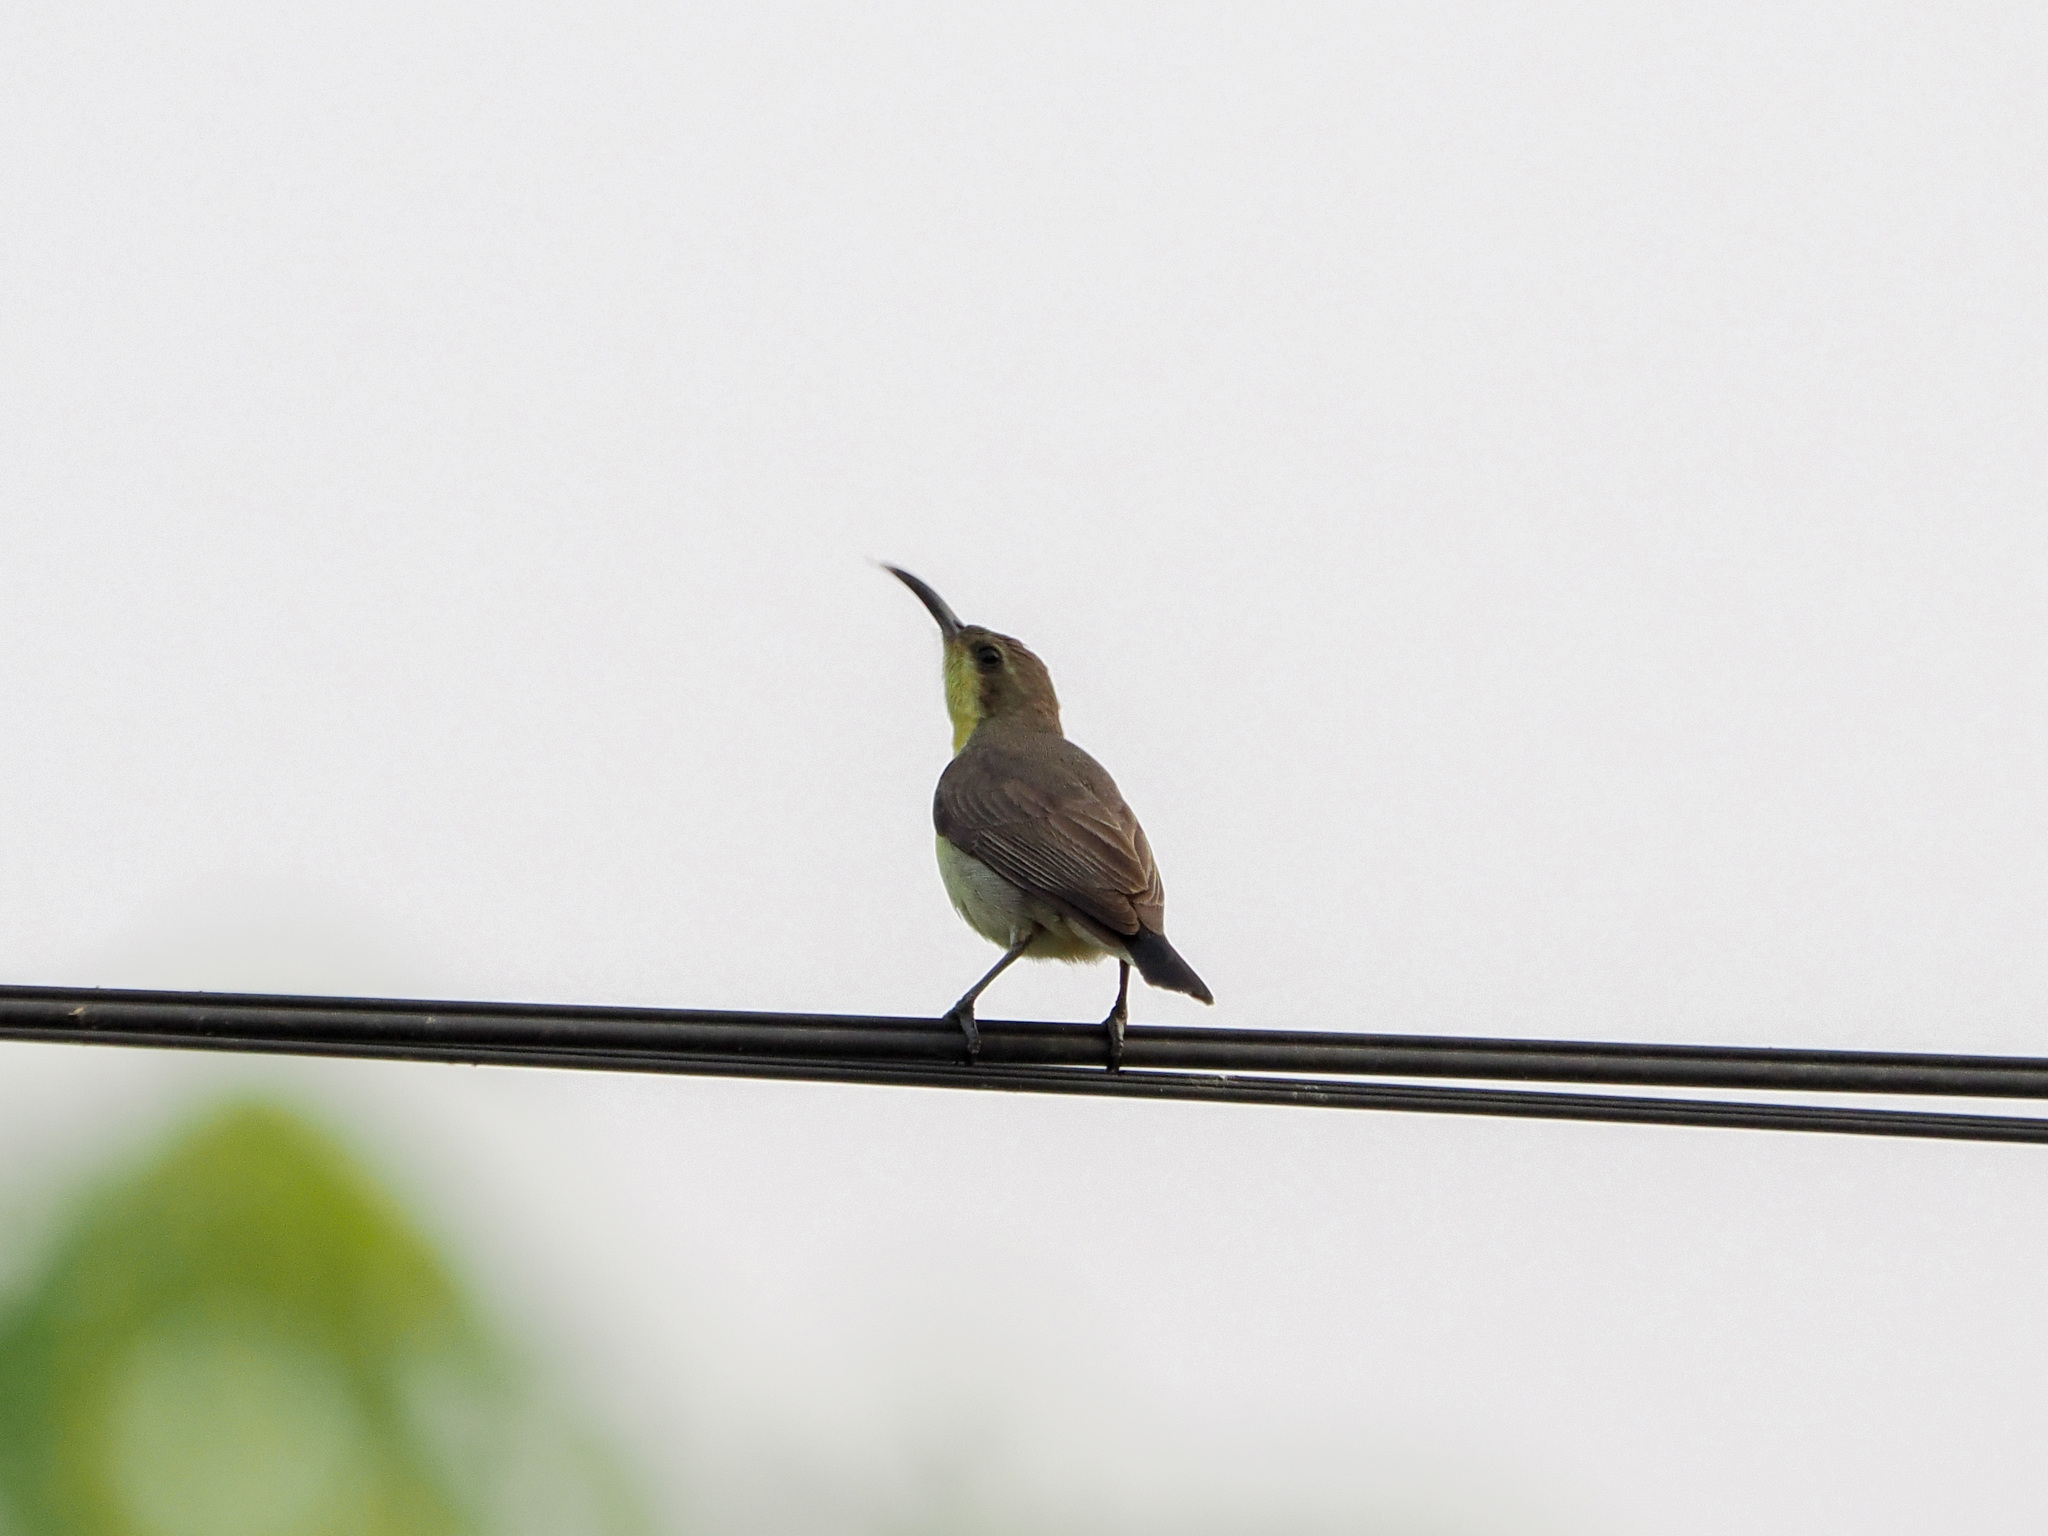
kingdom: Animalia
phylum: Chordata
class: Aves
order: Passeriformes
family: Nectariniidae
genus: Cinnyris
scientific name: Cinnyris
